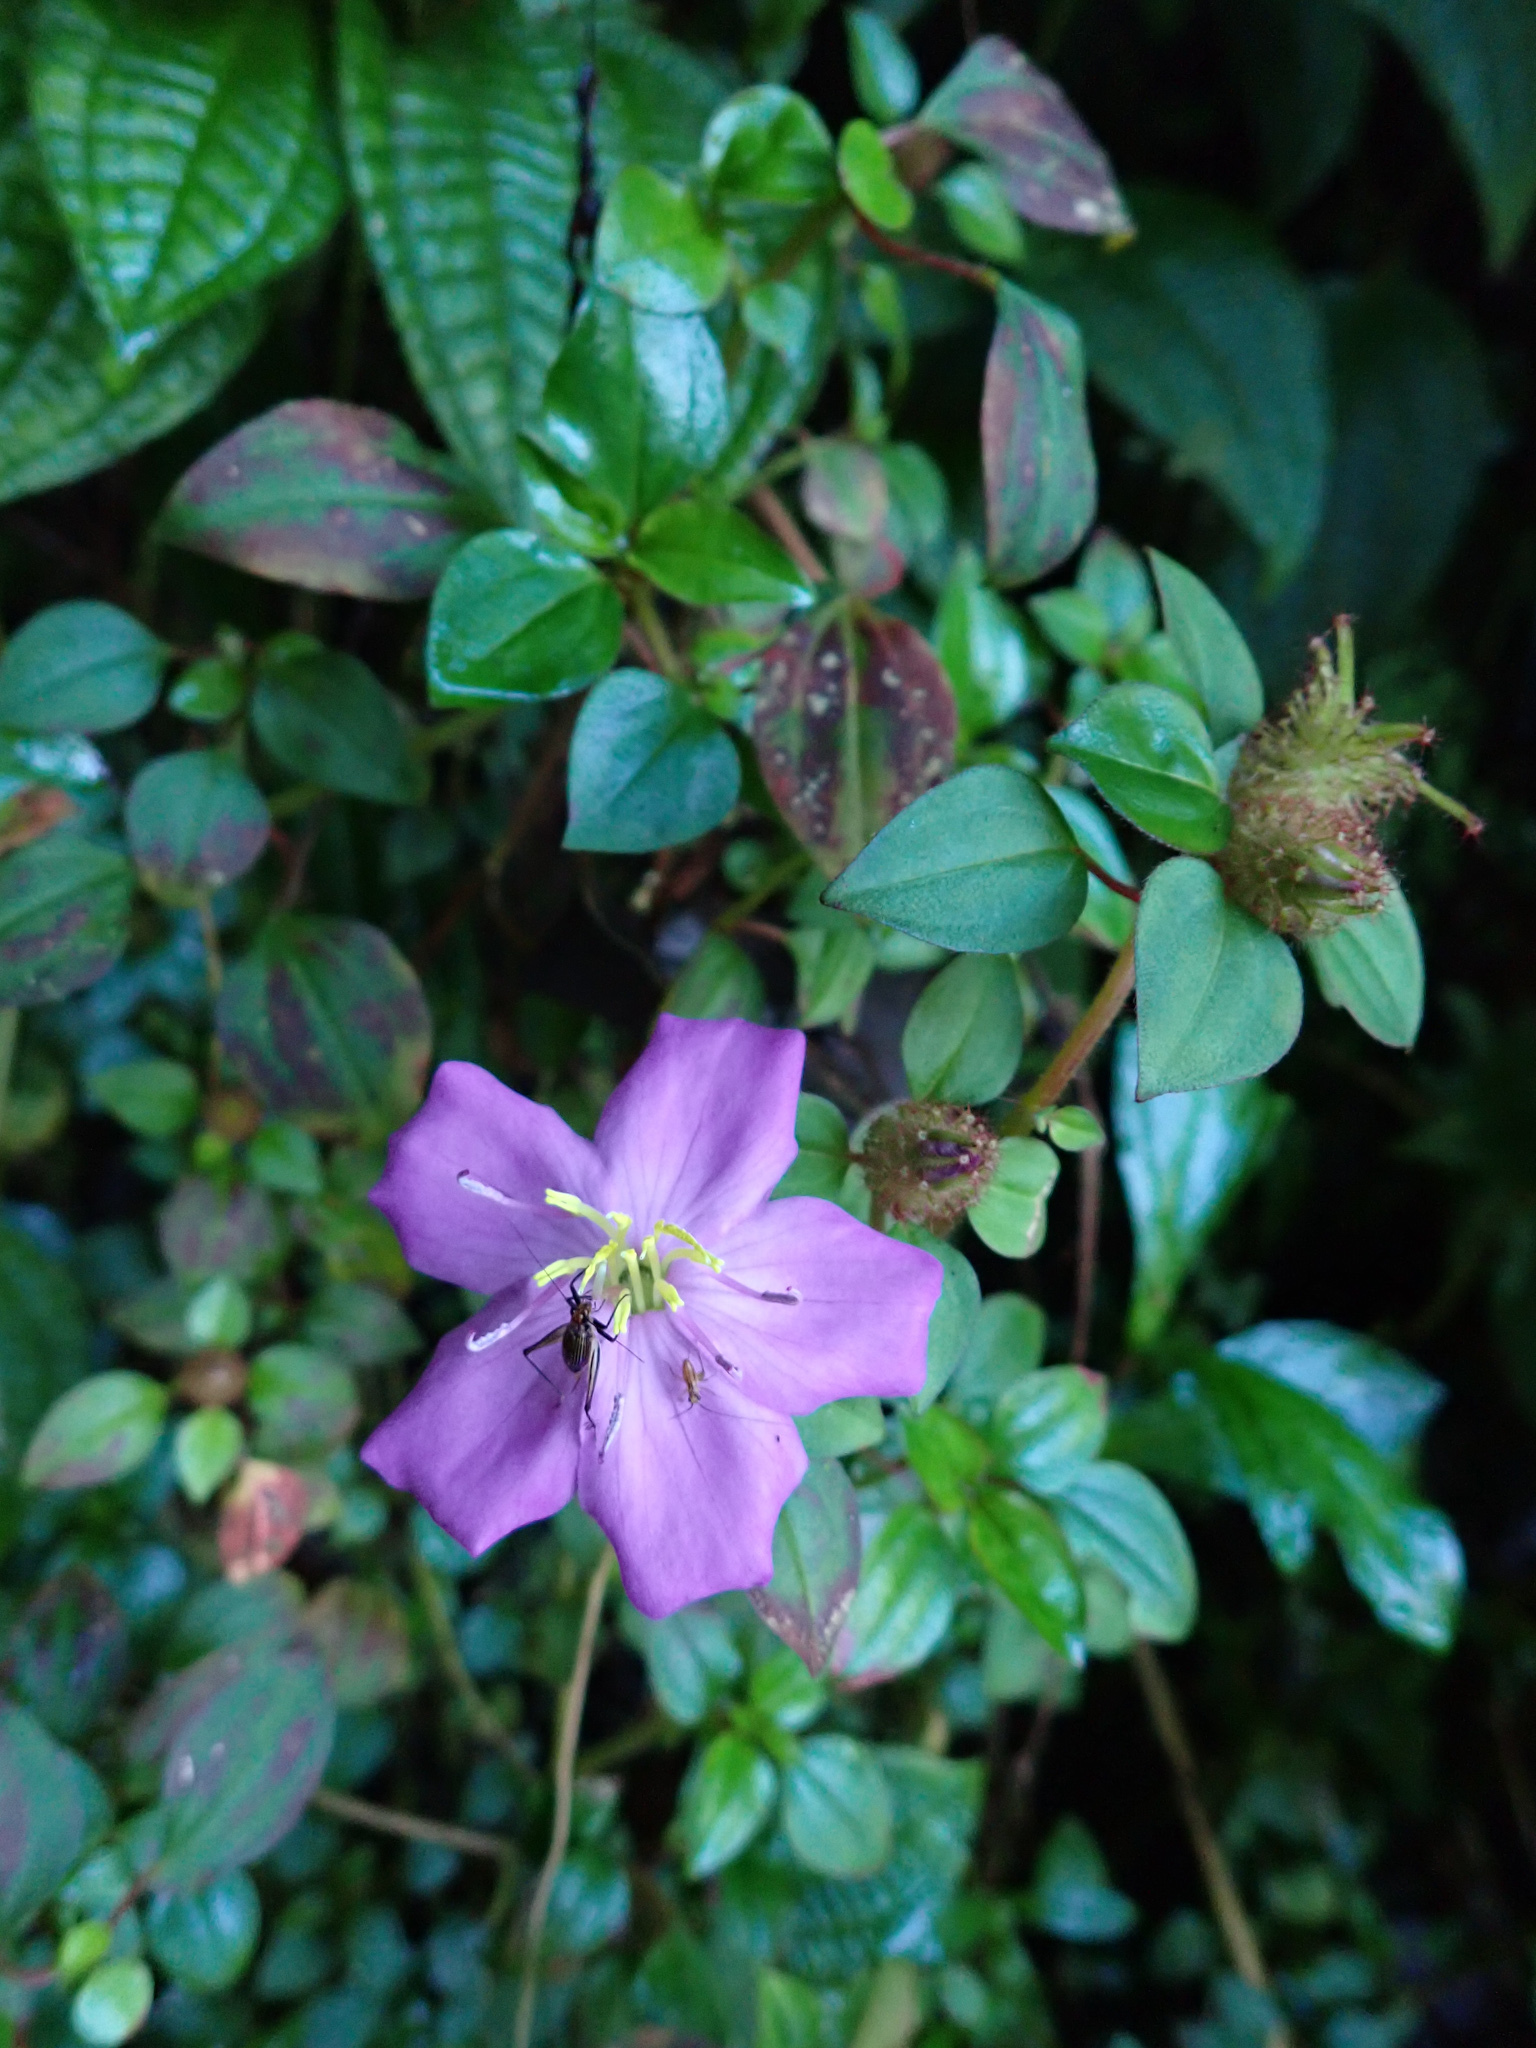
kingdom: Plantae
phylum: Tracheophyta
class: Magnoliopsida
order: Myrtales
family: Melastomataceae
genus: Heterotis
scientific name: Heterotis rotundifolia
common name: Pinklady
